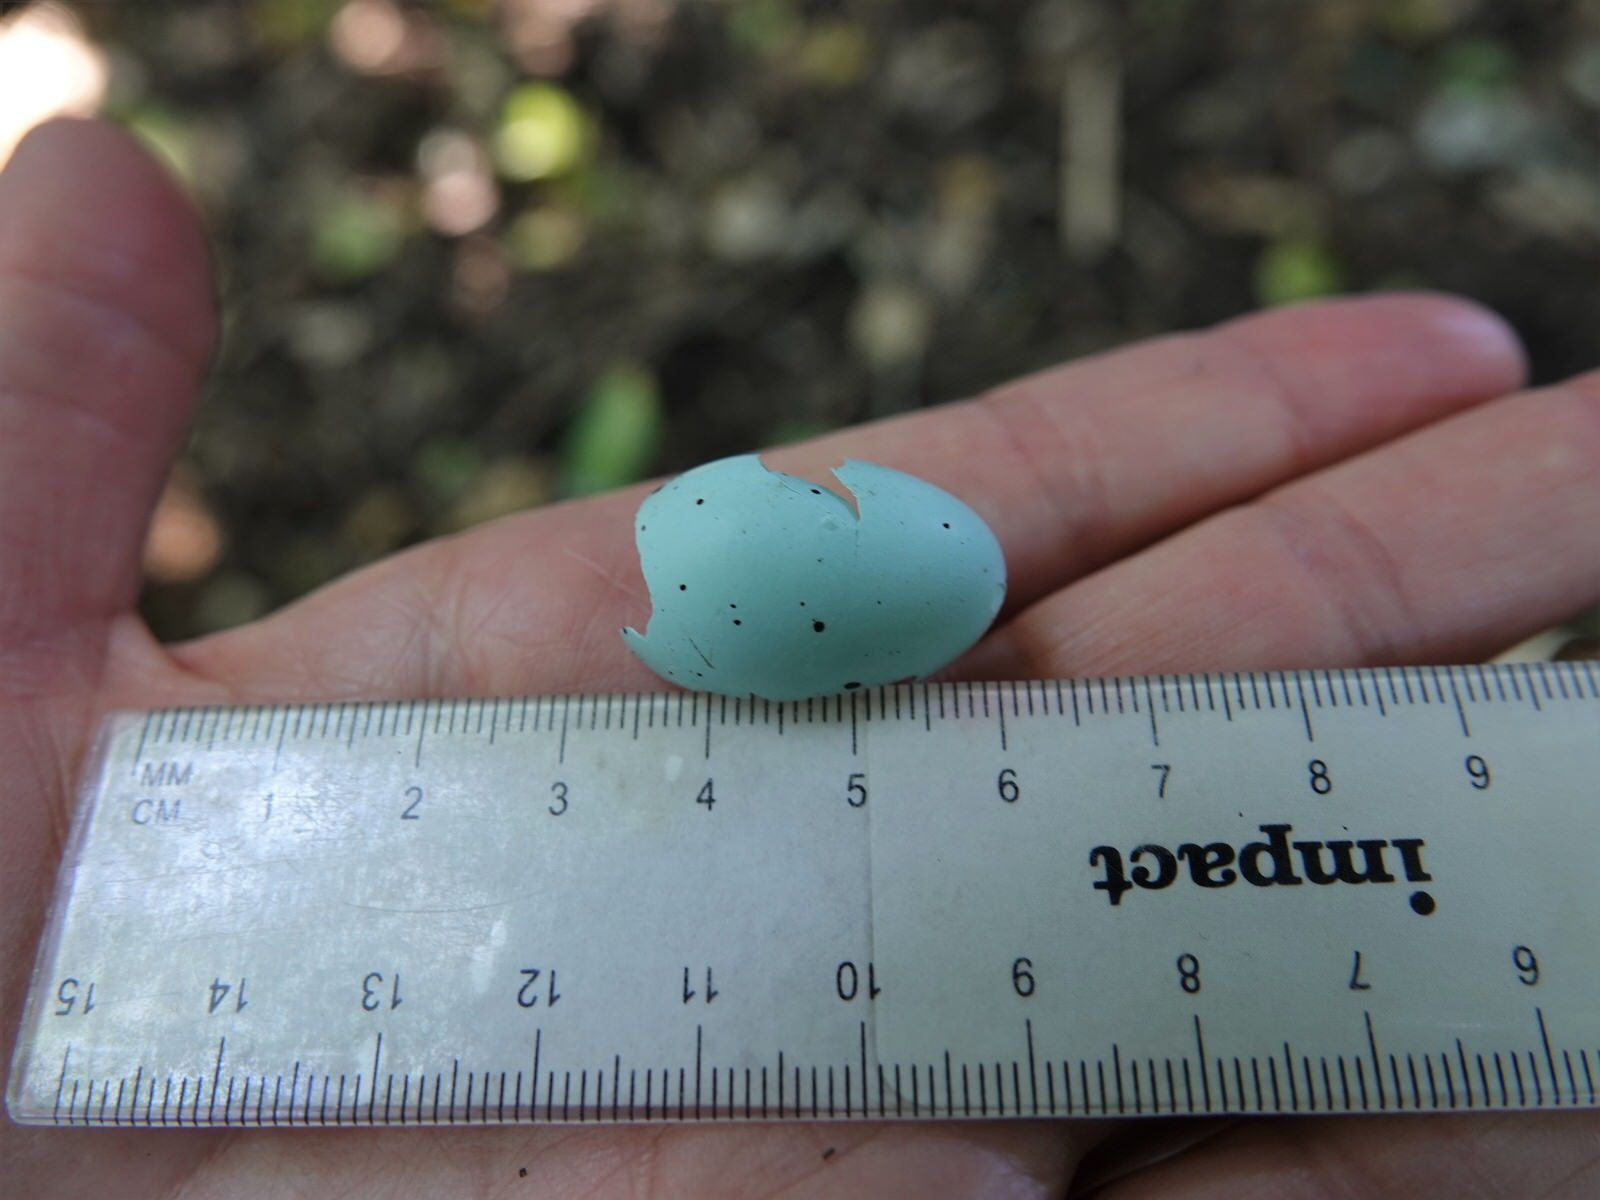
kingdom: Animalia
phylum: Chordata
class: Aves
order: Passeriformes
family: Turdidae
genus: Turdus
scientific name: Turdus philomelos
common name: Song thrush
